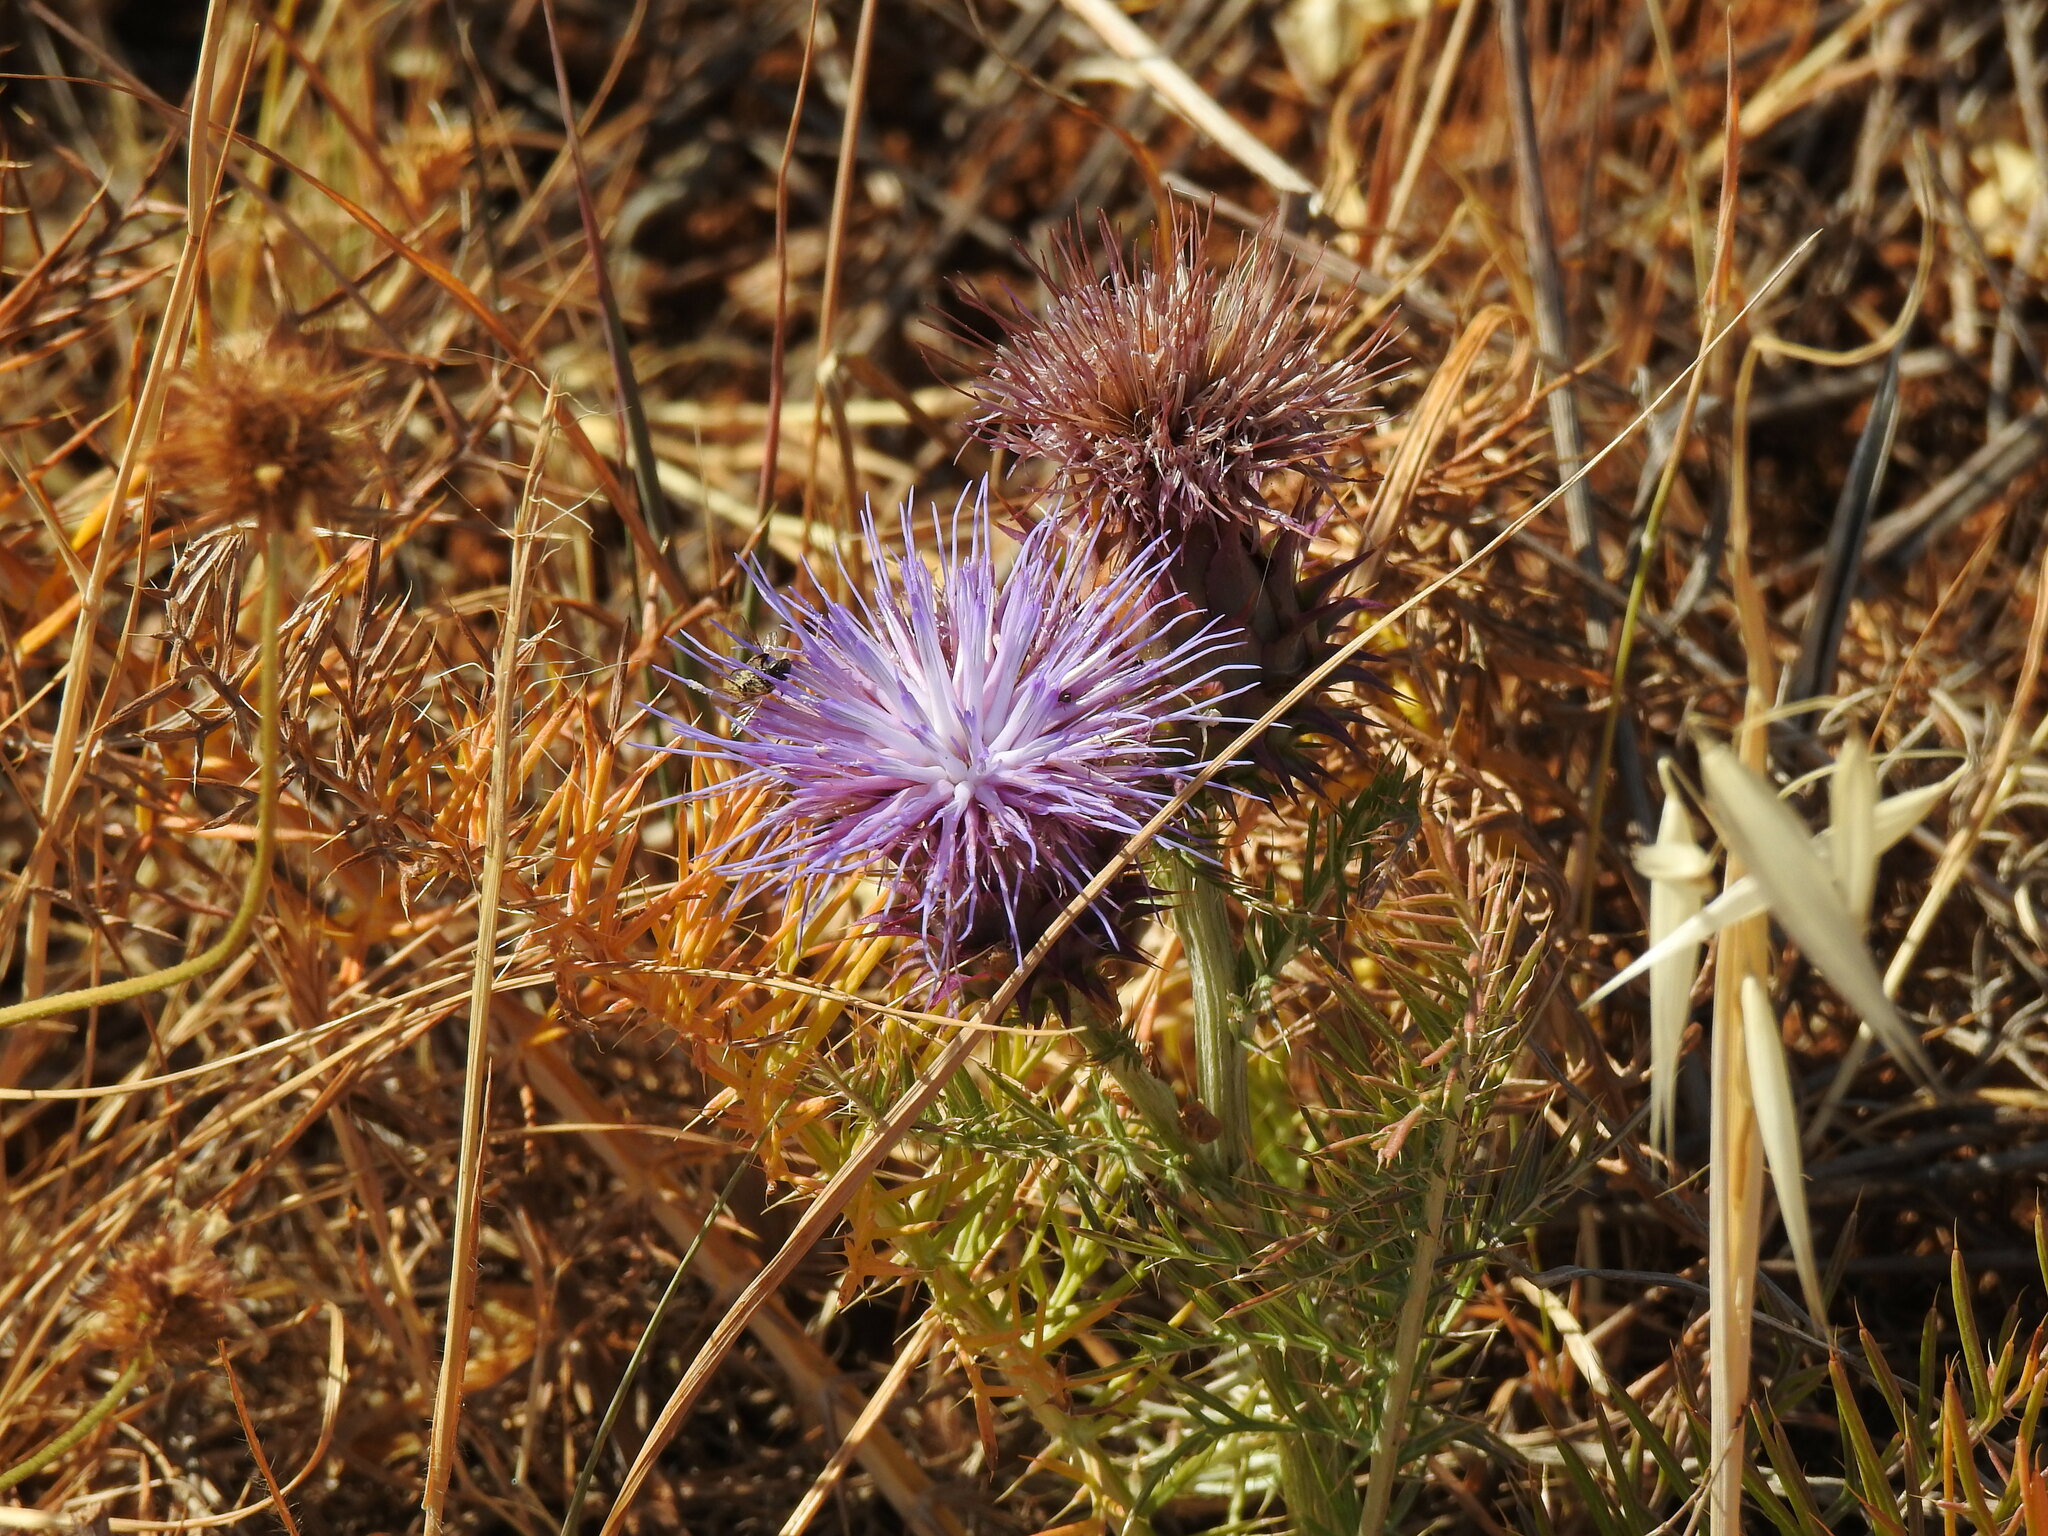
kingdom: Plantae
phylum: Tracheophyta
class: Magnoliopsida
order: Asterales
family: Asteraceae
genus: Cynara
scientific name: Cynara humilis
